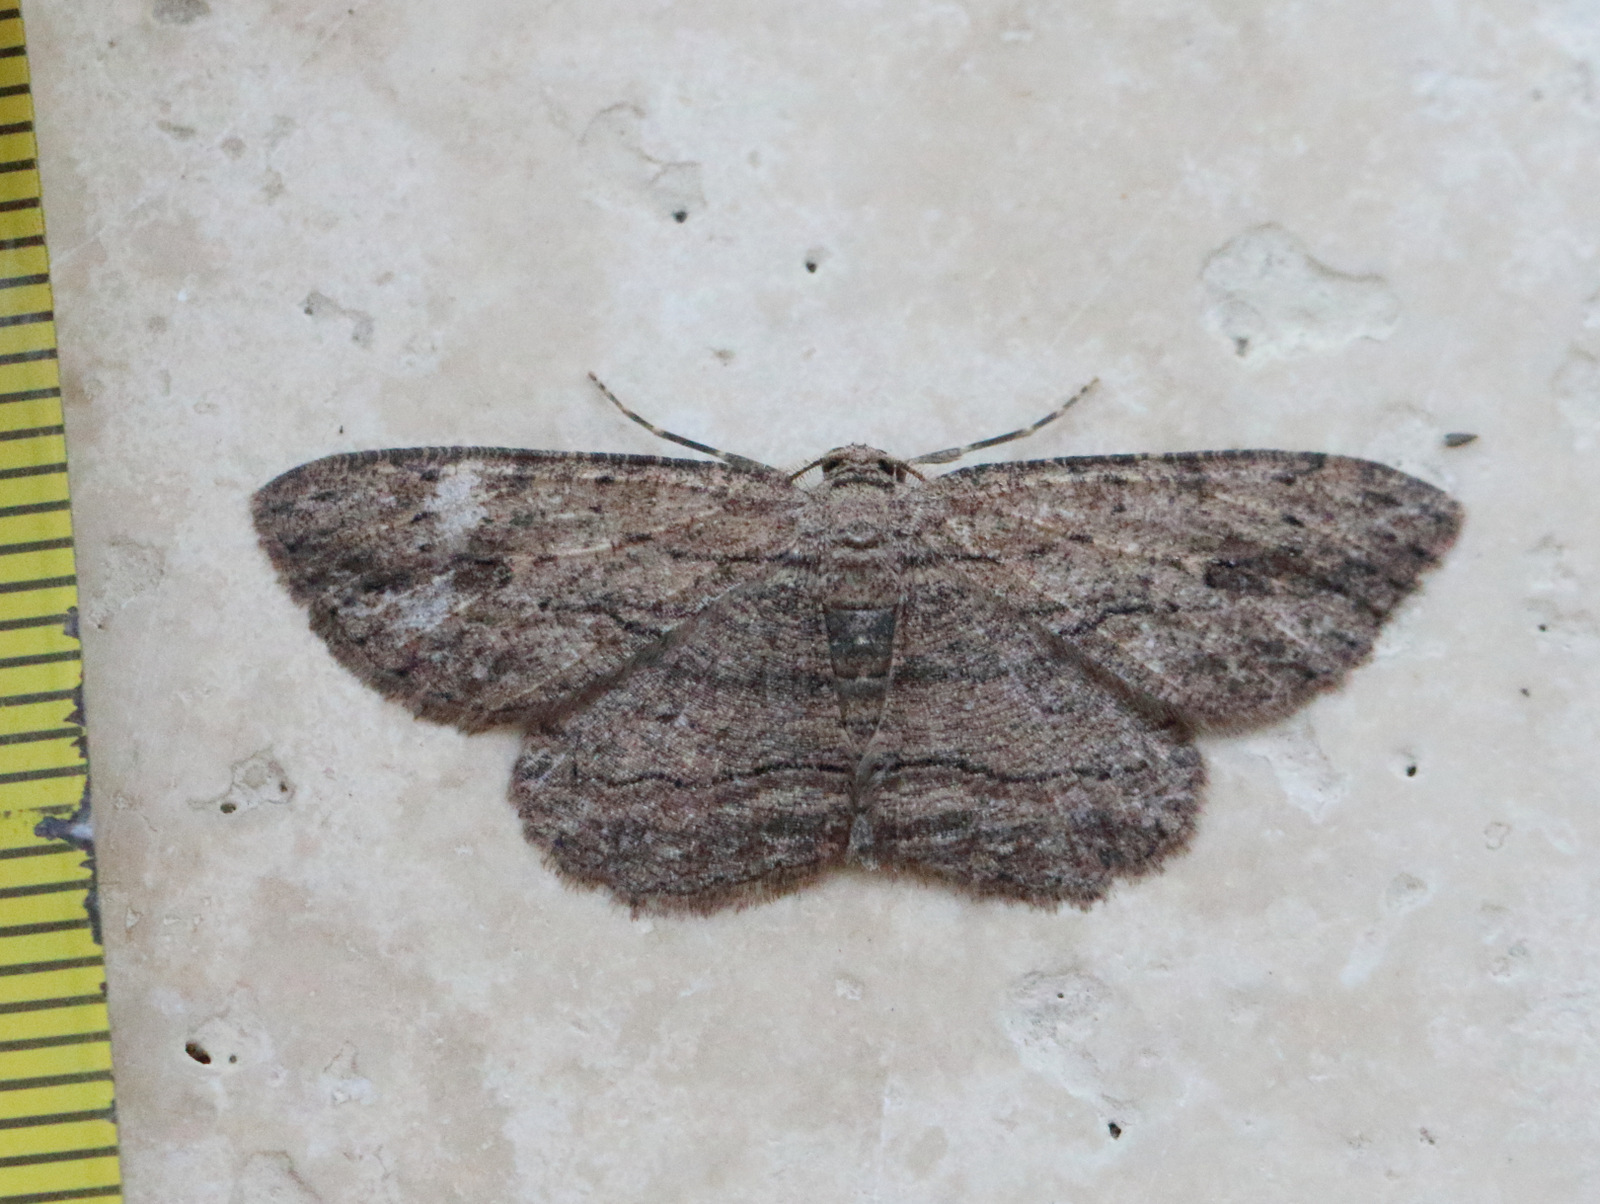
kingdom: Animalia
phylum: Arthropoda
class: Insecta
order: Lepidoptera
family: Geometridae
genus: Ectropis
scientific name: Ectropis excursaria
